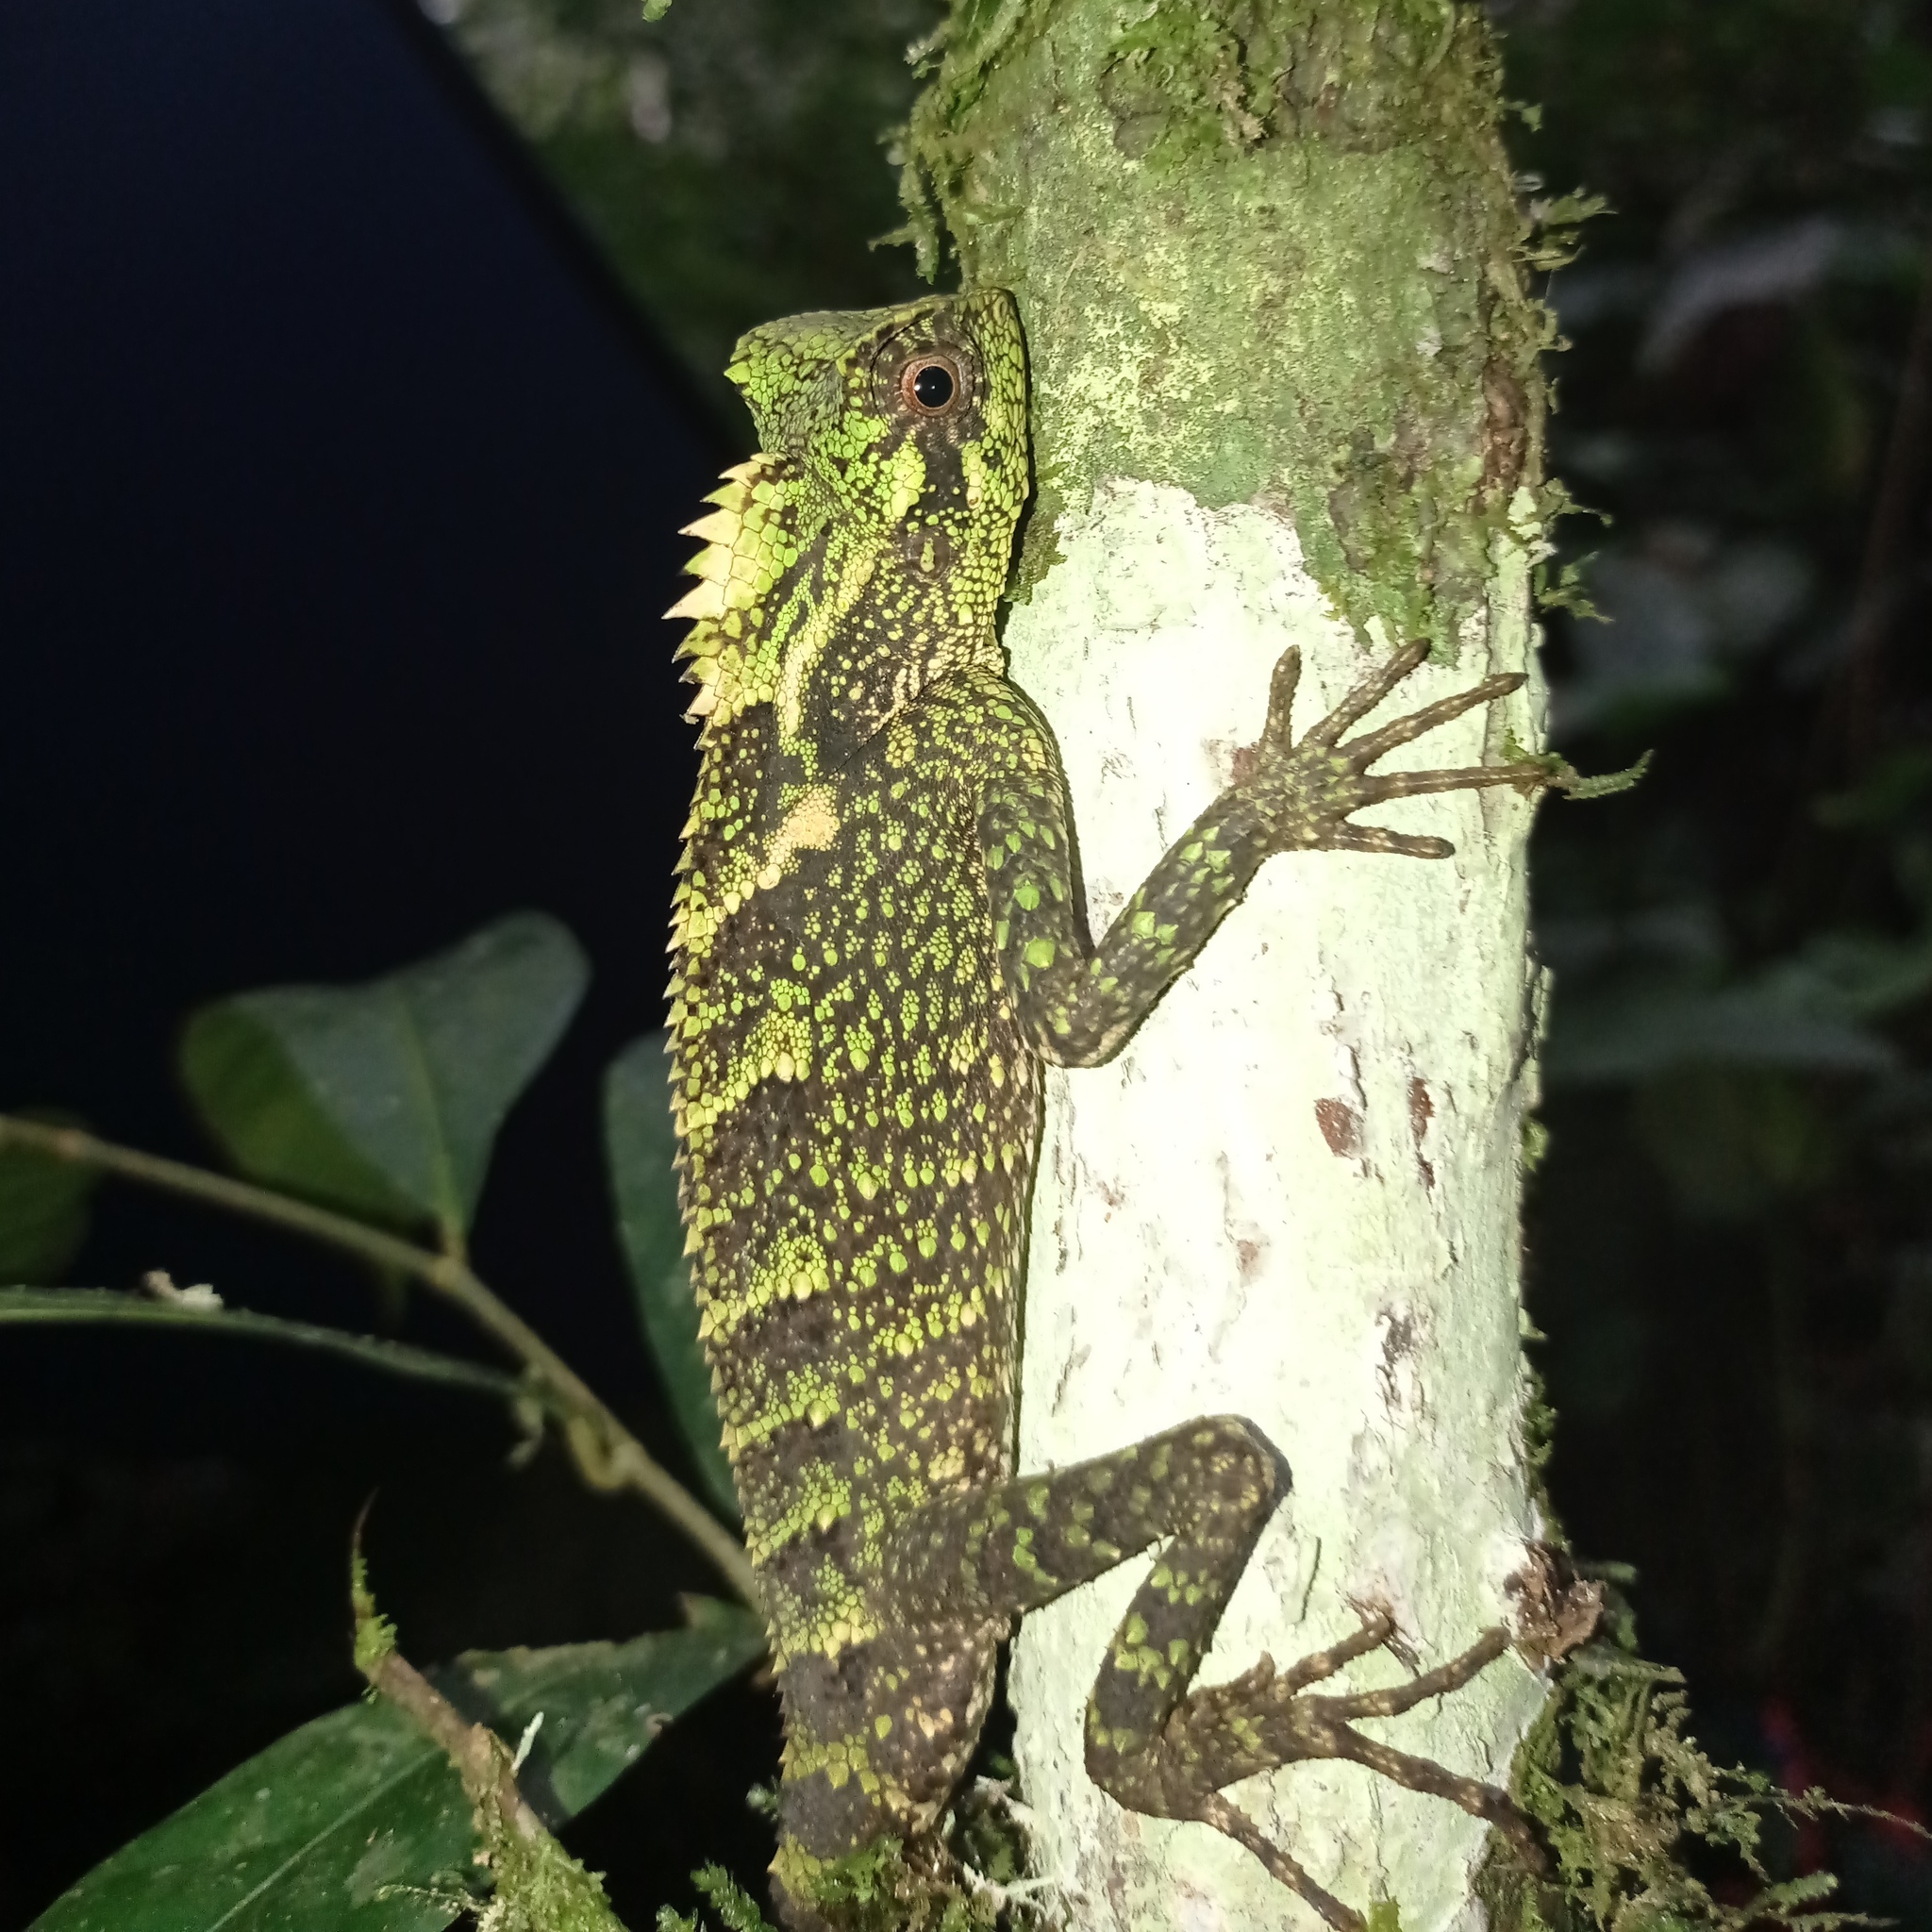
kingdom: Animalia
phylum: Chordata
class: Squamata
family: Agamidae
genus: Gonocephalus
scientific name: Gonocephalus kuhlii
